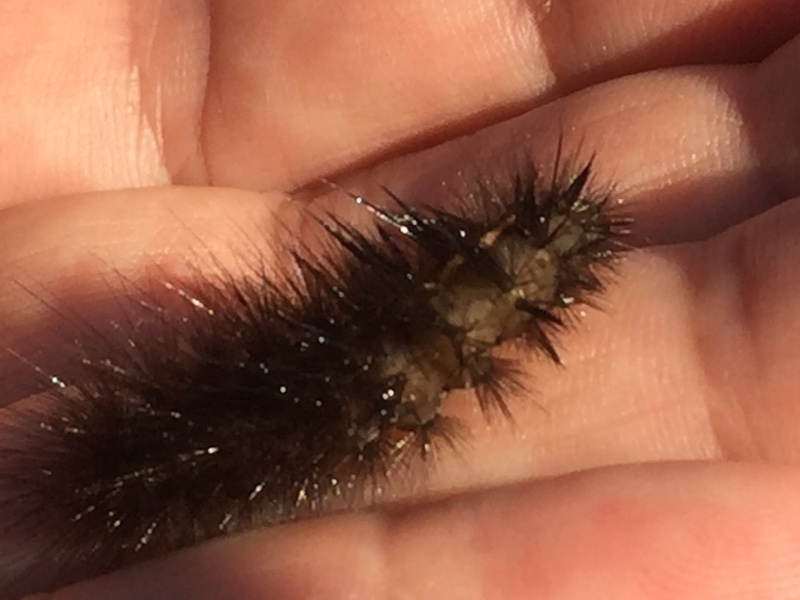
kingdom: Animalia
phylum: Arthropoda
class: Insecta
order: Lepidoptera
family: Erebidae
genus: Phragmatobia
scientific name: Phragmatobia fuliginosa
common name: Ruby tiger
